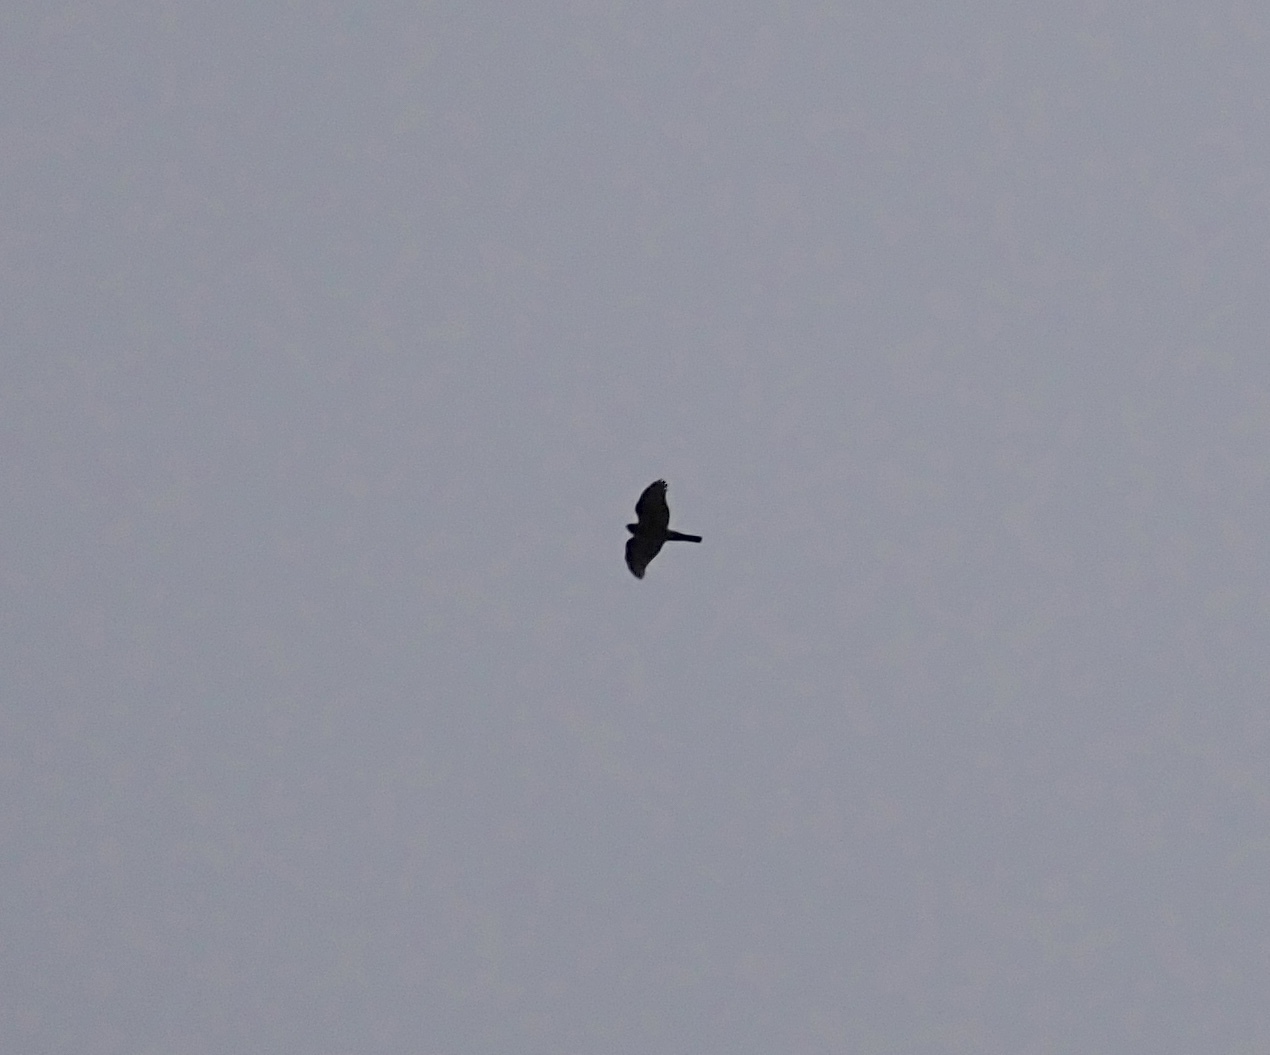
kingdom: Animalia
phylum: Chordata
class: Aves
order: Accipitriformes
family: Accipitridae
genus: Accipiter
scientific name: Accipiter nisus
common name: Eurasian sparrowhawk
